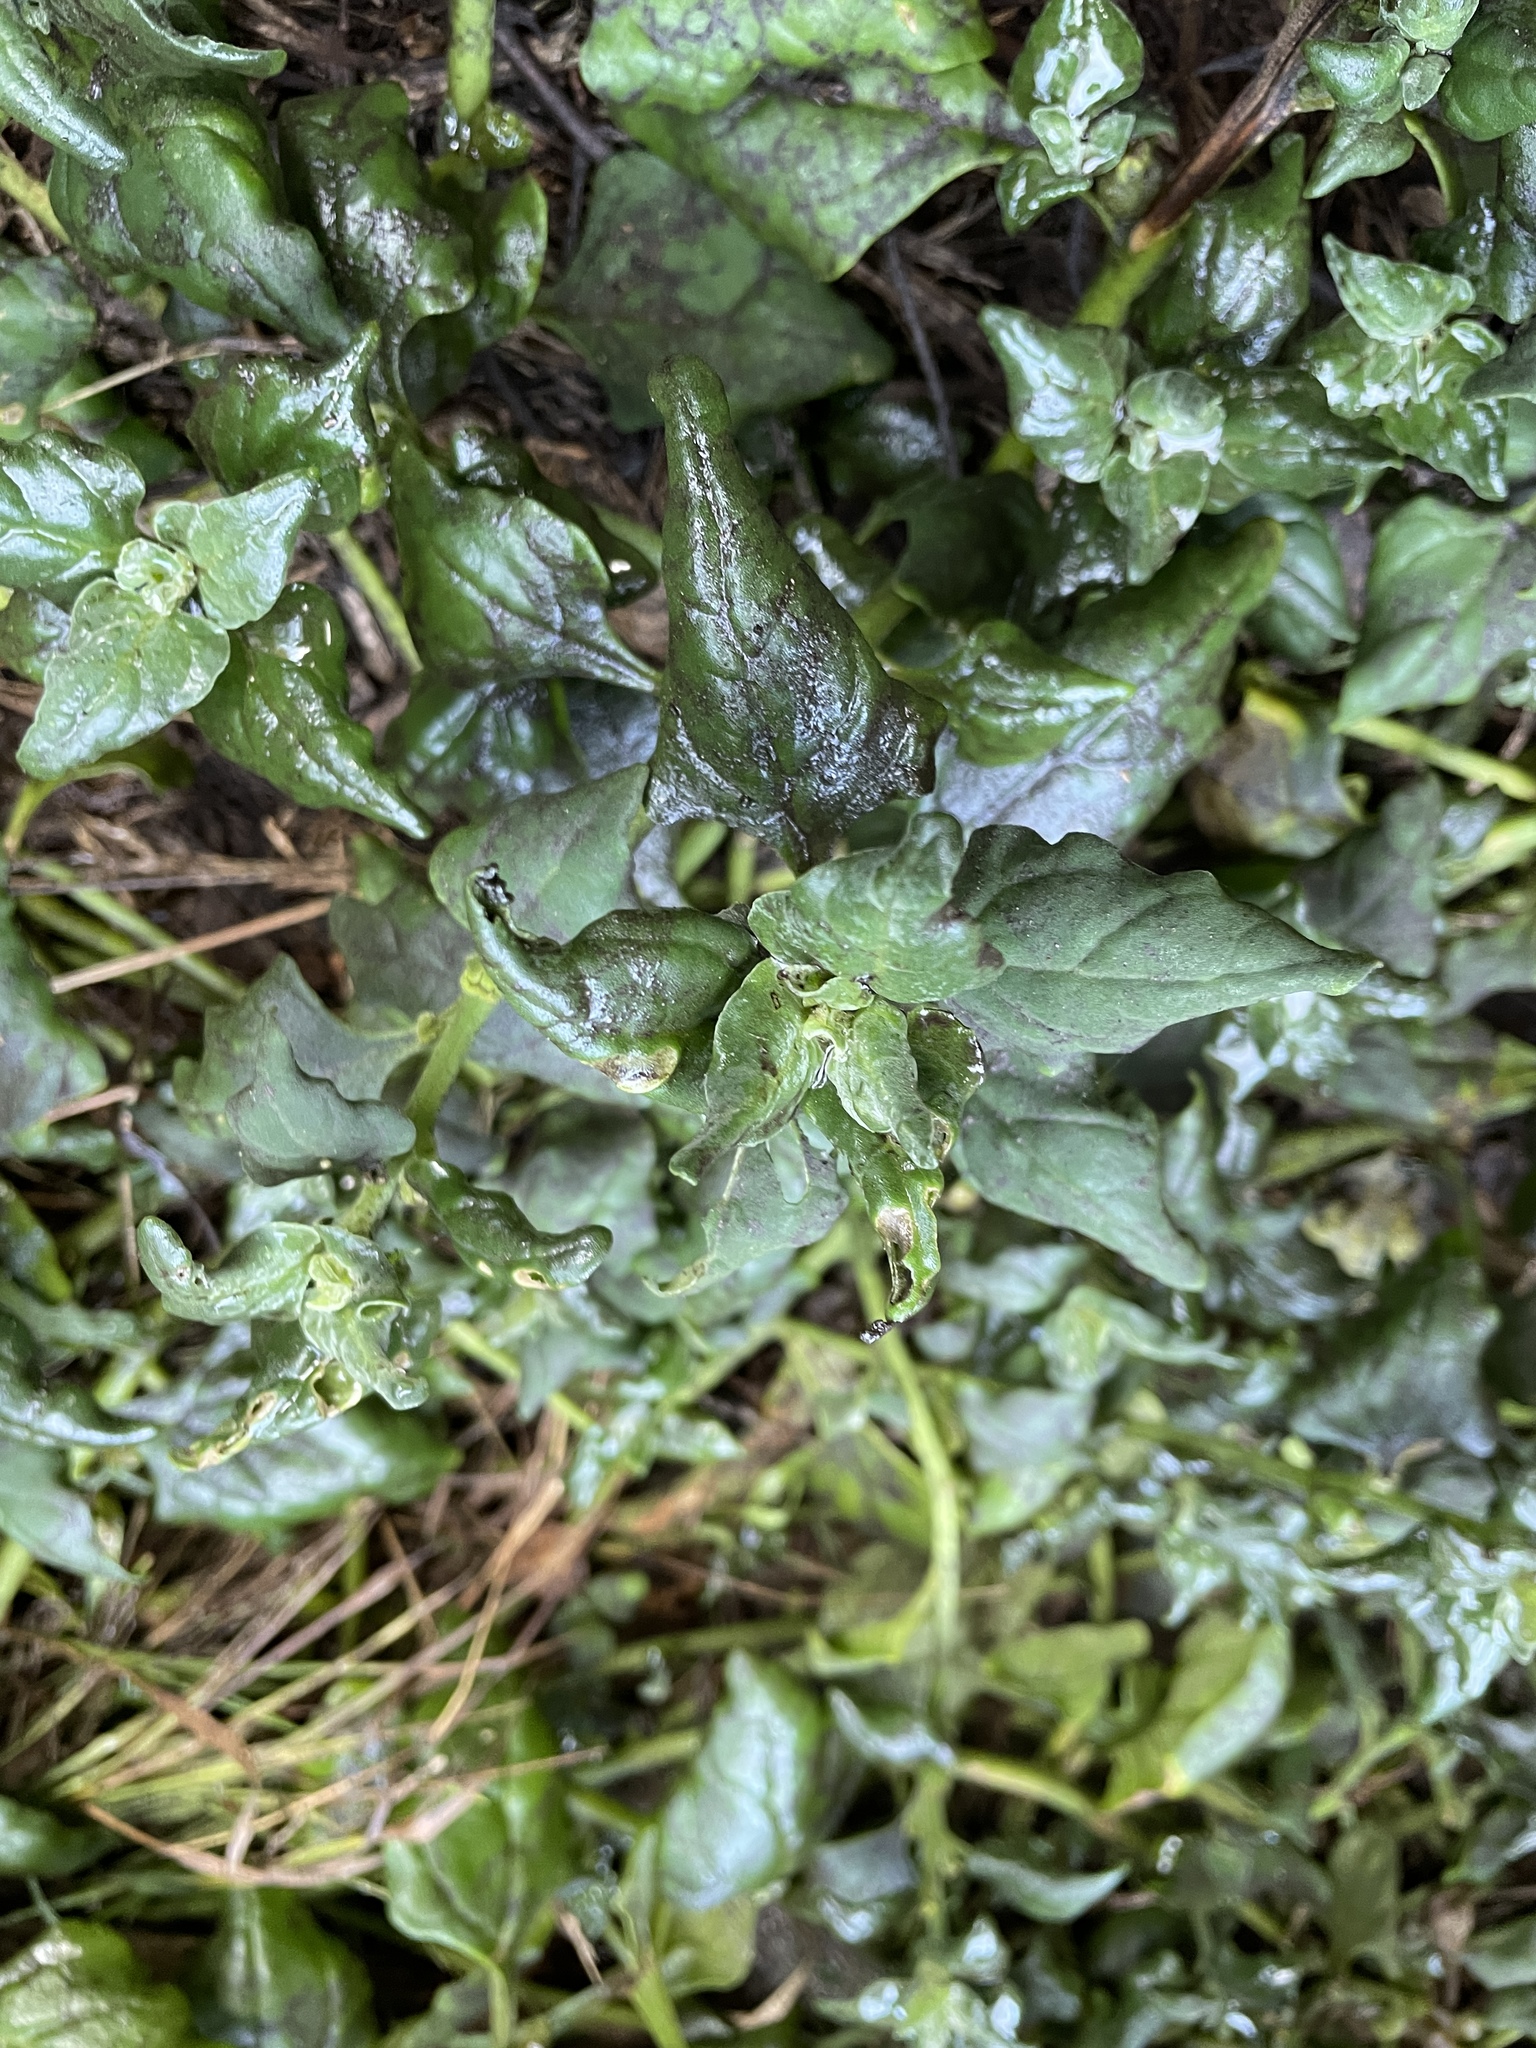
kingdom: Plantae
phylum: Tracheophyta
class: Magnoliopsida
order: Caryophyllales
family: Aizoaceae
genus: Tetragonia
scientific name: Tetragonia tetragonoides
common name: New zealand-spinach
